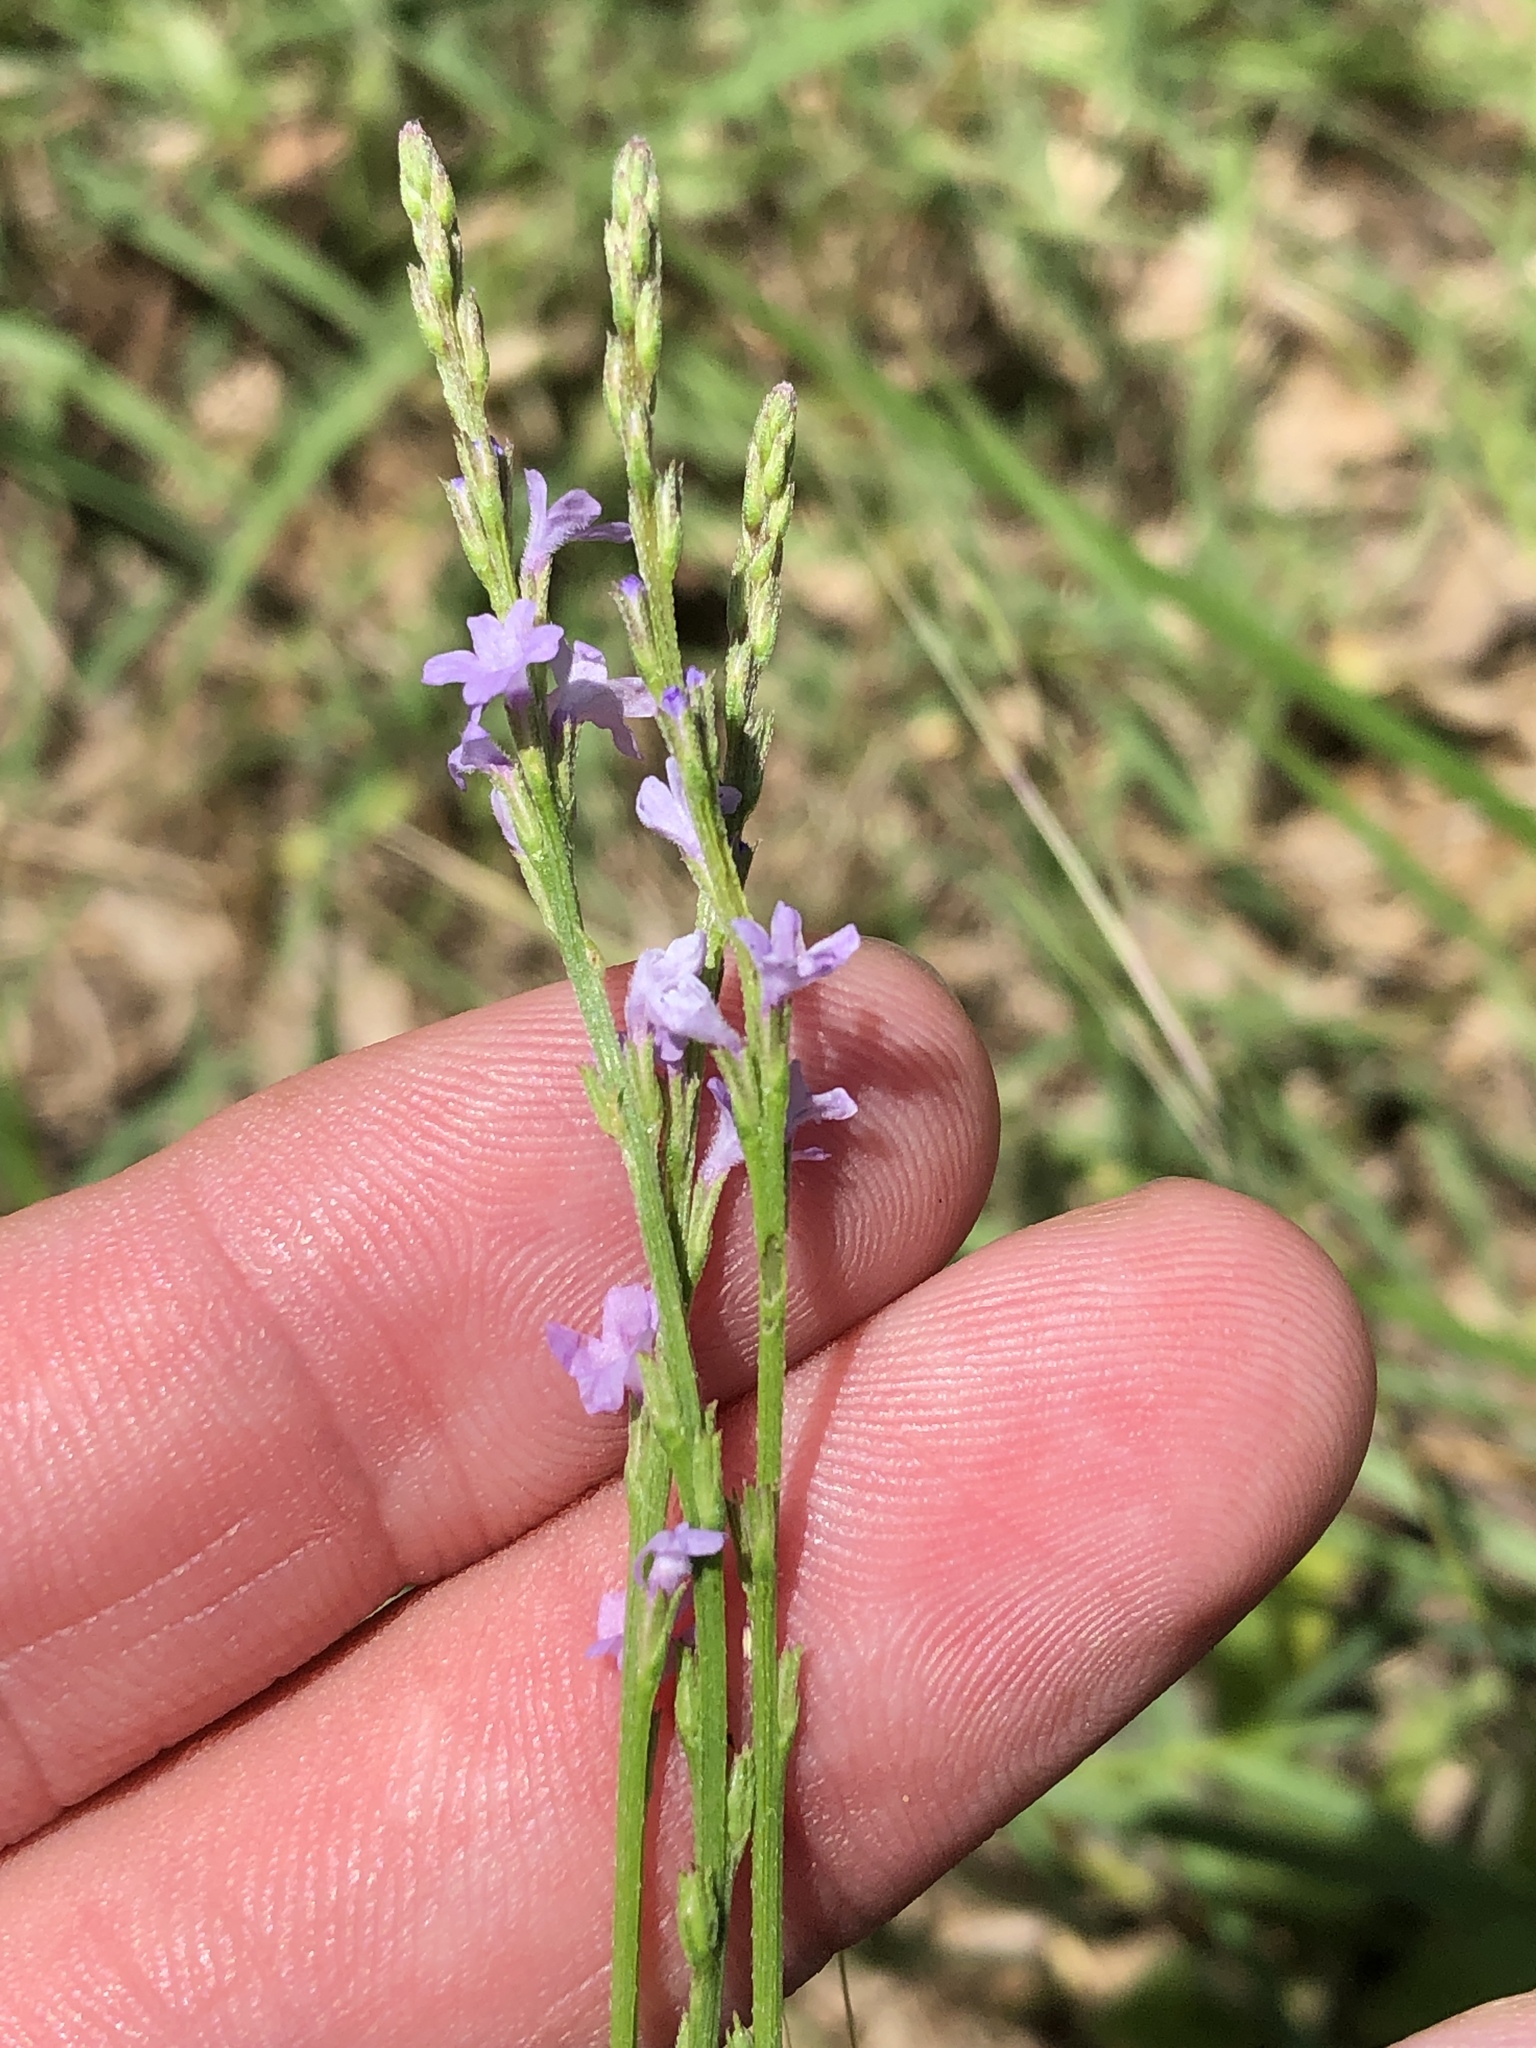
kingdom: Plantae
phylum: Tracheophyta
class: Magnoliopsida
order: Lamiales
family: Verbenaceae
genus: Verbena
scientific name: Verbena halei
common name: Texas vervain
